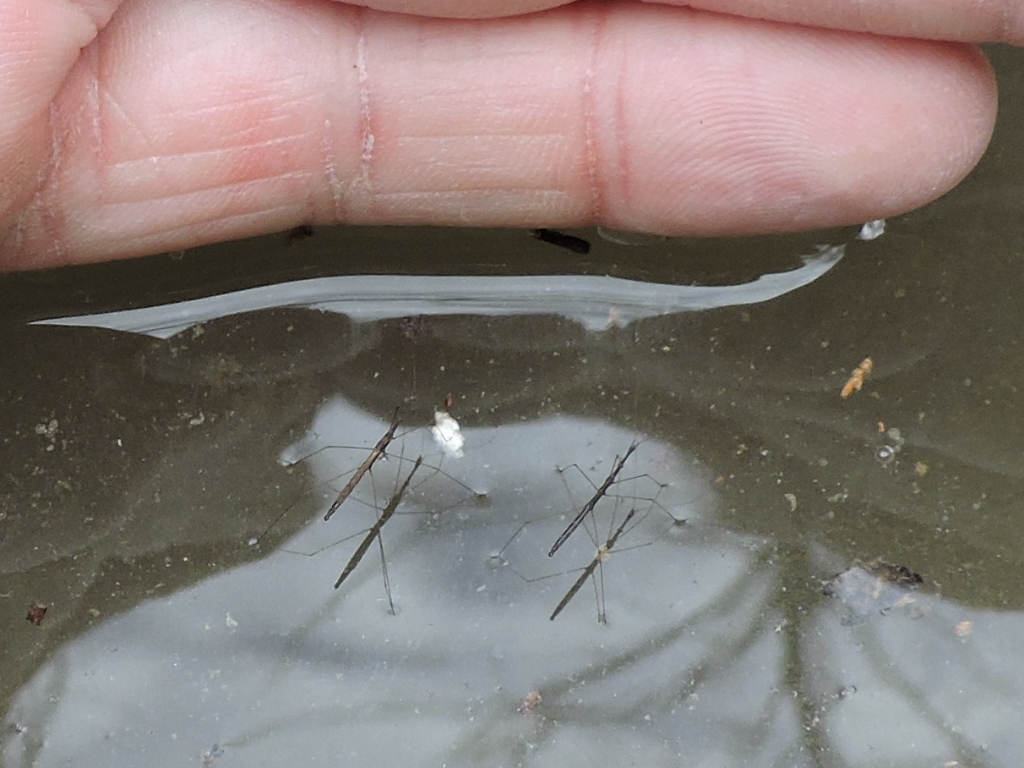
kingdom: Animalia
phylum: Arthropoda
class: Insecta
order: Hemiptera
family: Hydrometridae
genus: Hydrometra
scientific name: Hydrometra
